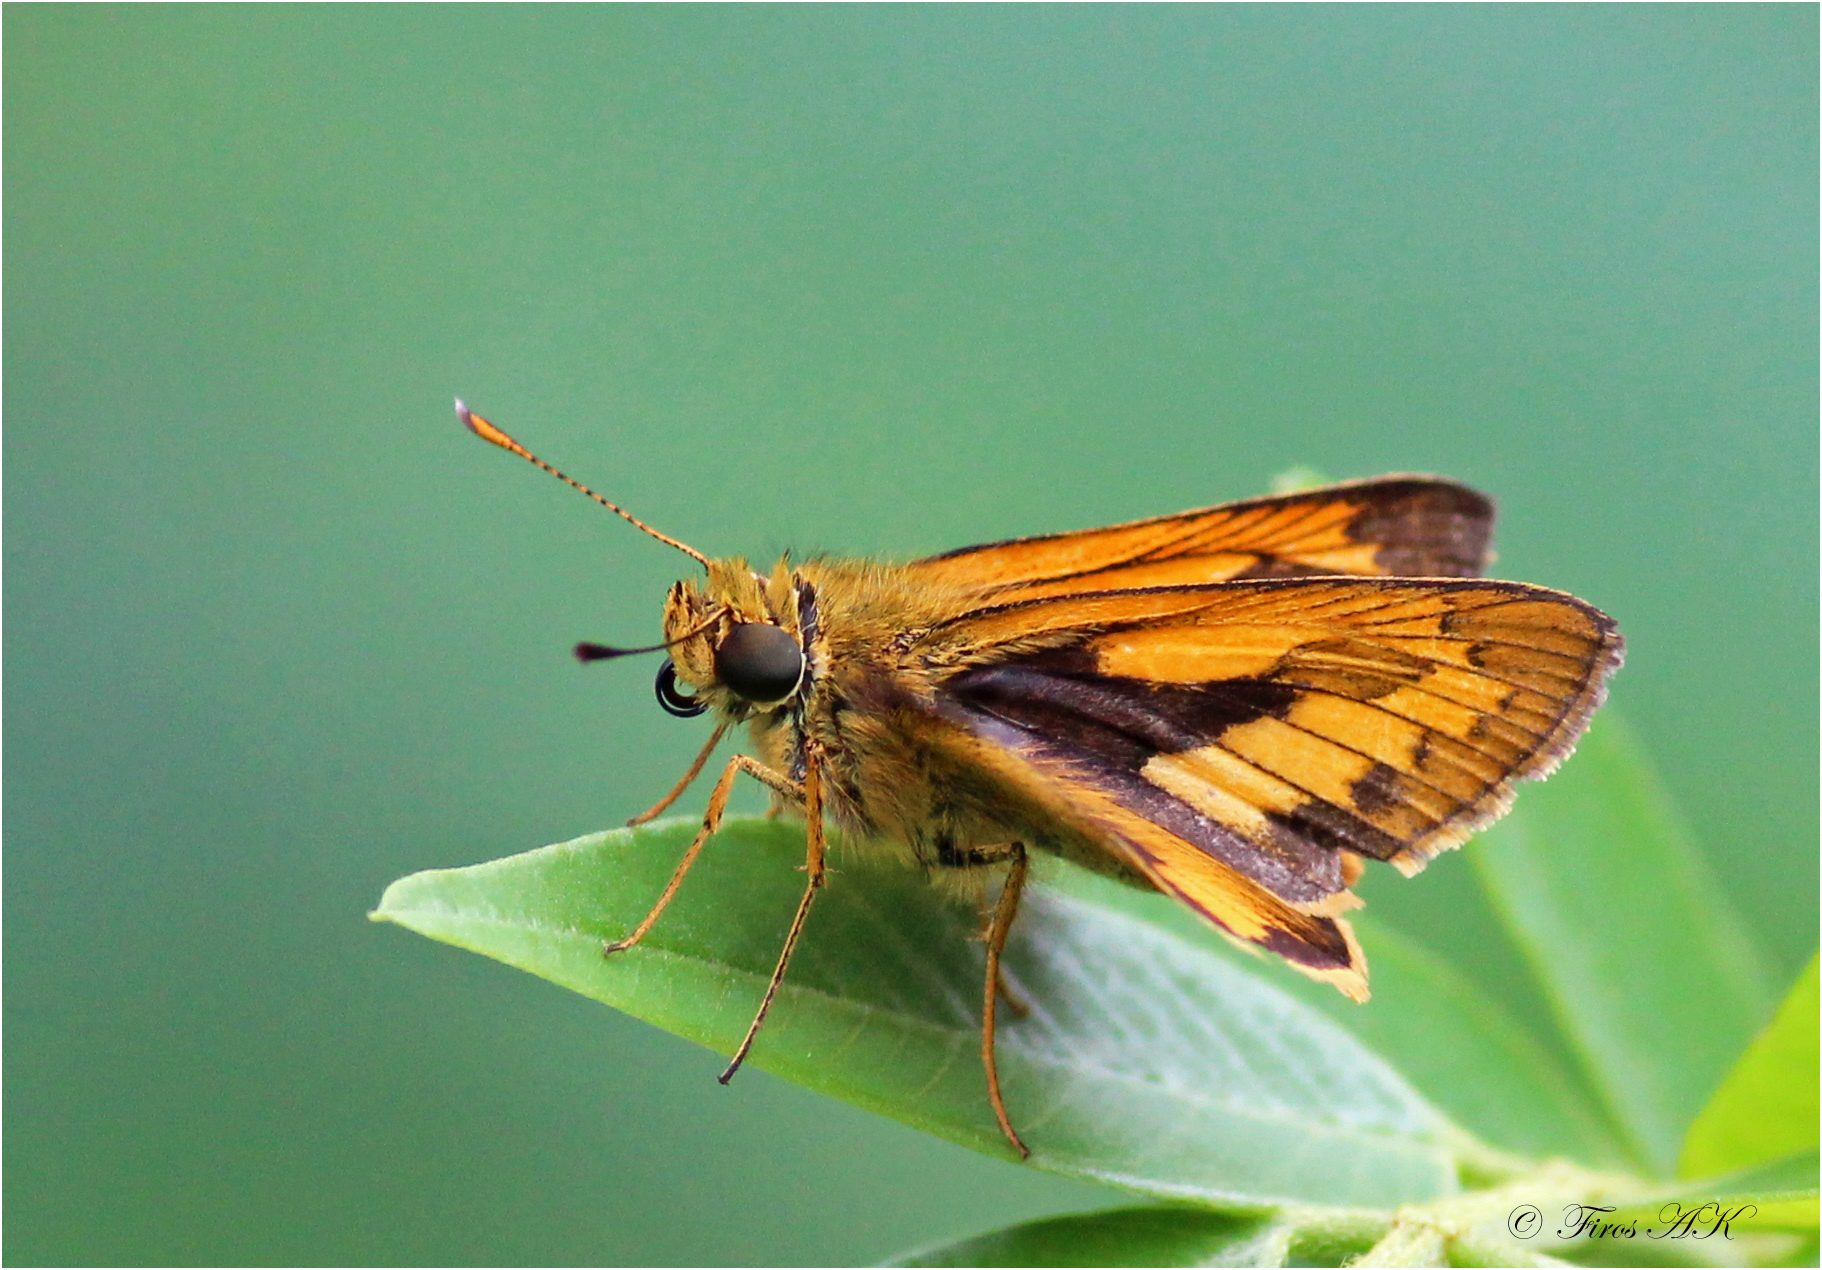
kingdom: Animalia
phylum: Arthropoda
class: Insecta
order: Lepidoptera
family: Hesperiidae
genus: Telicota
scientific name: Telicota bambusae
